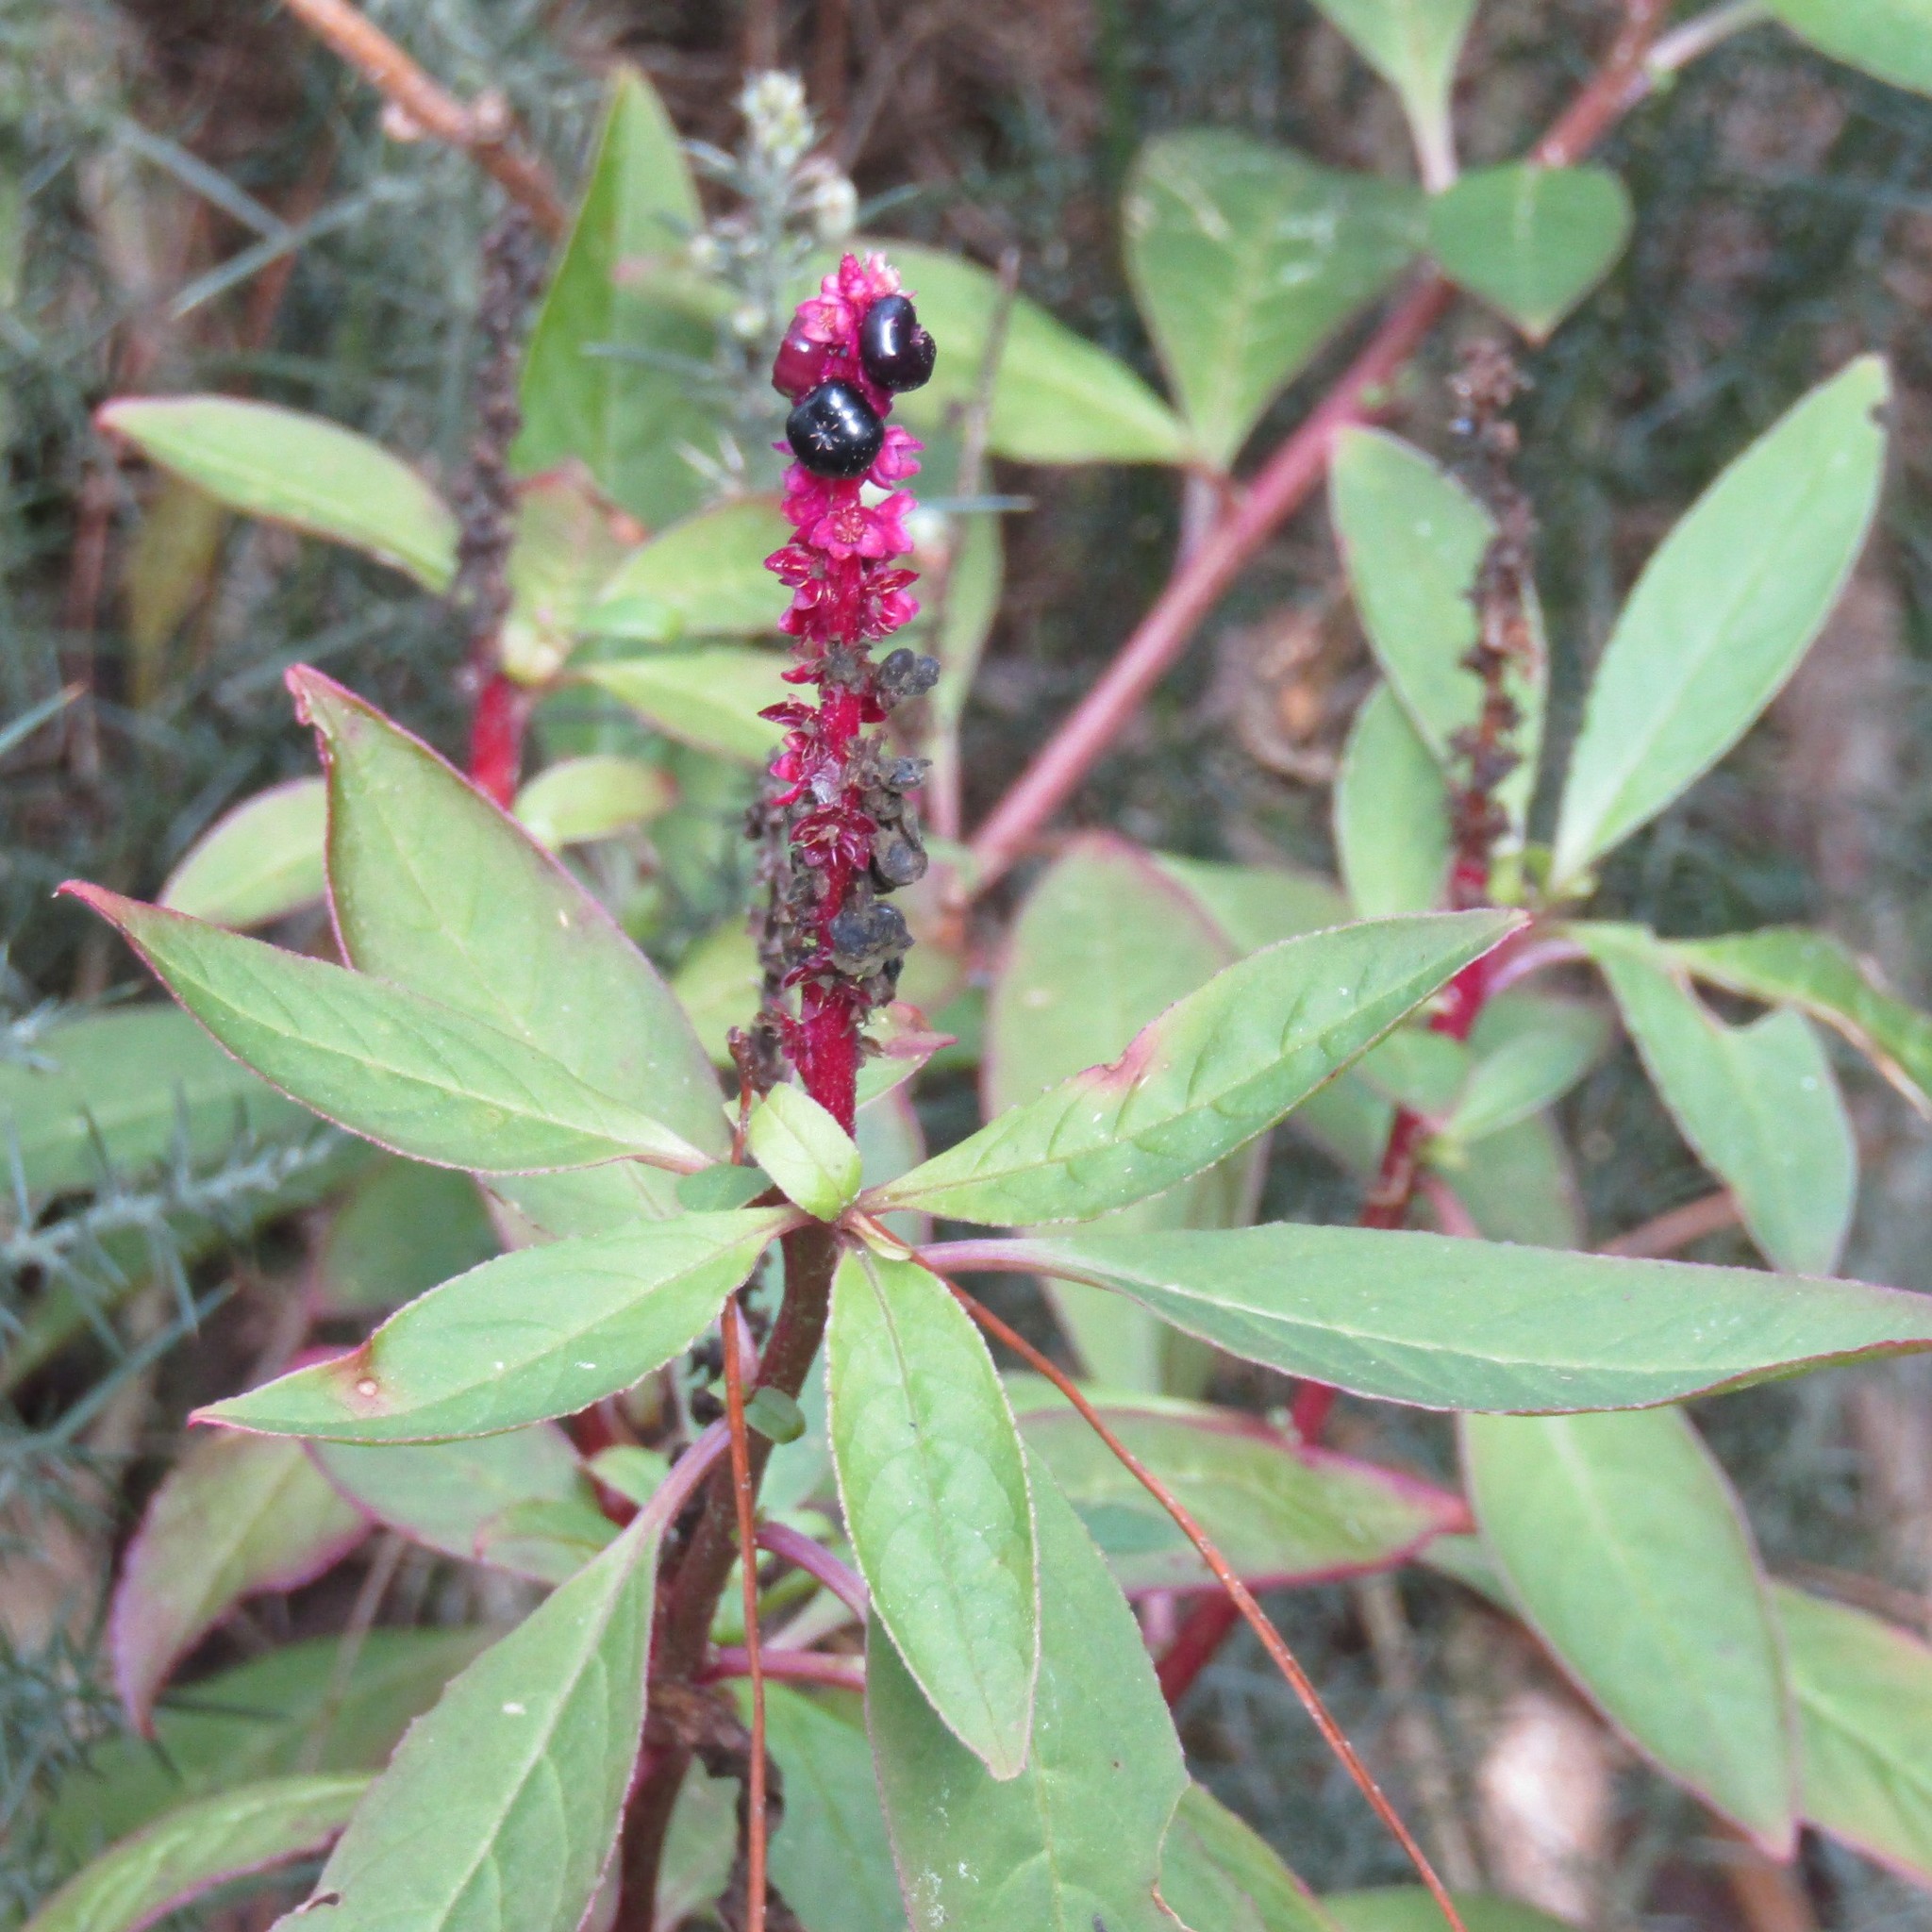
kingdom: Plantae
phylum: Tracheophyta
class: Magnoliopsida
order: Caryophyllales
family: Phytolaccaceae
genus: Phytolacca
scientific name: Phytolacca icosandra
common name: Button pokeweed
